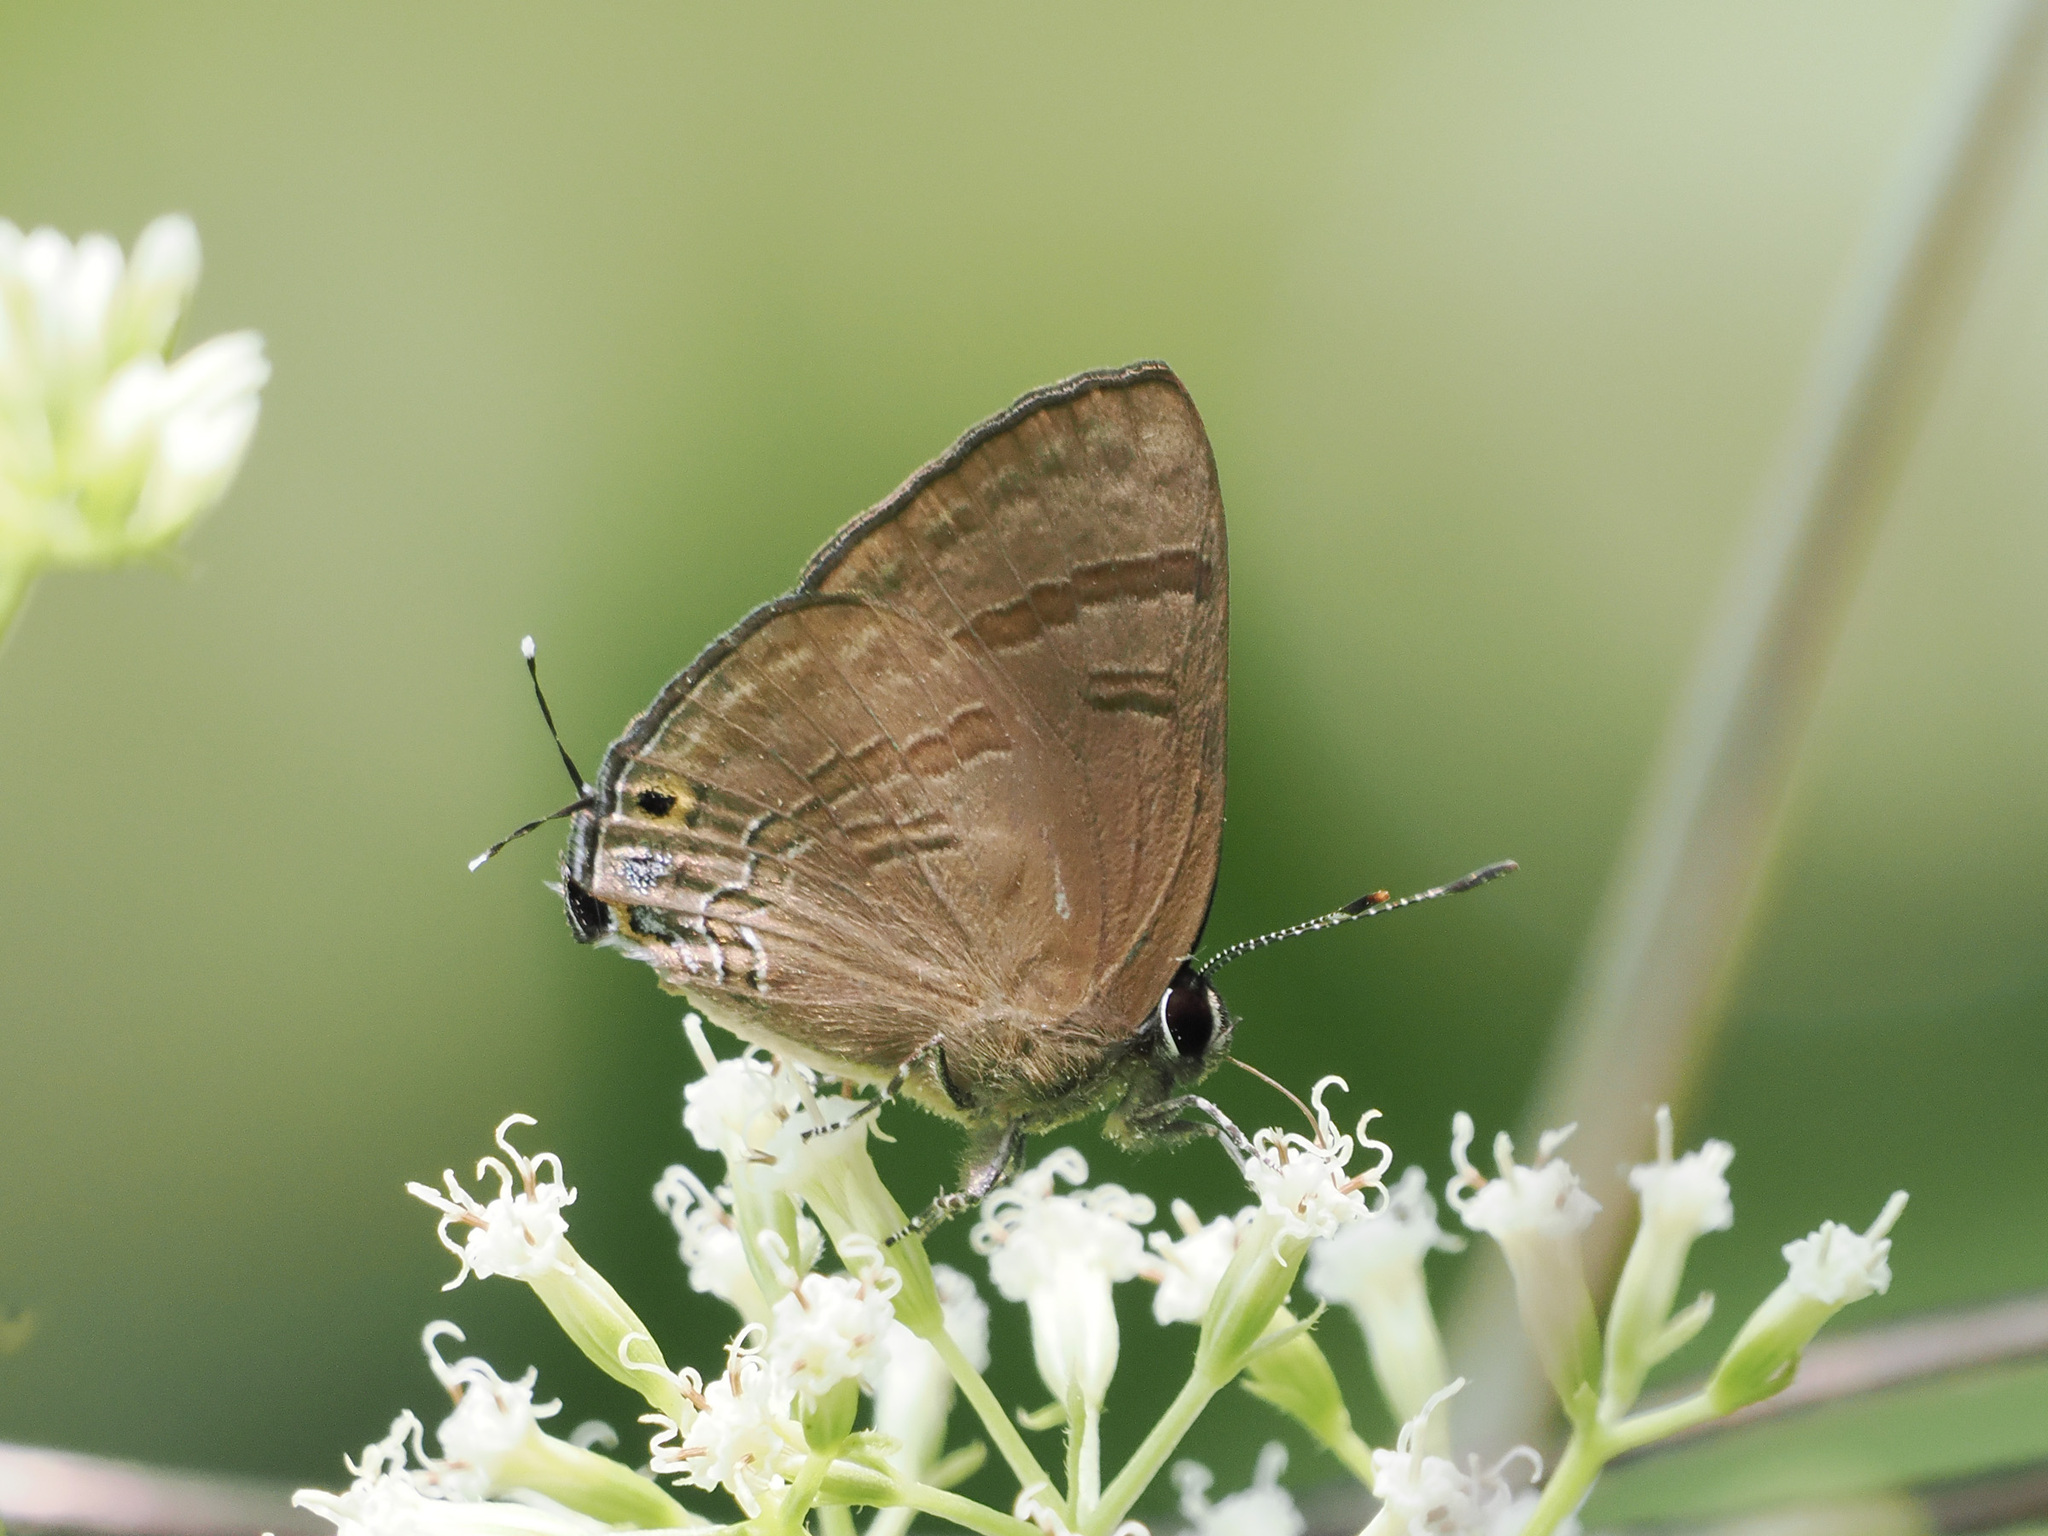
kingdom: Animalia
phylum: Arthropoda
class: Insecta
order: Lepidoptera
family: Lycaenidae
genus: Rapala
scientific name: Rapala varuna
